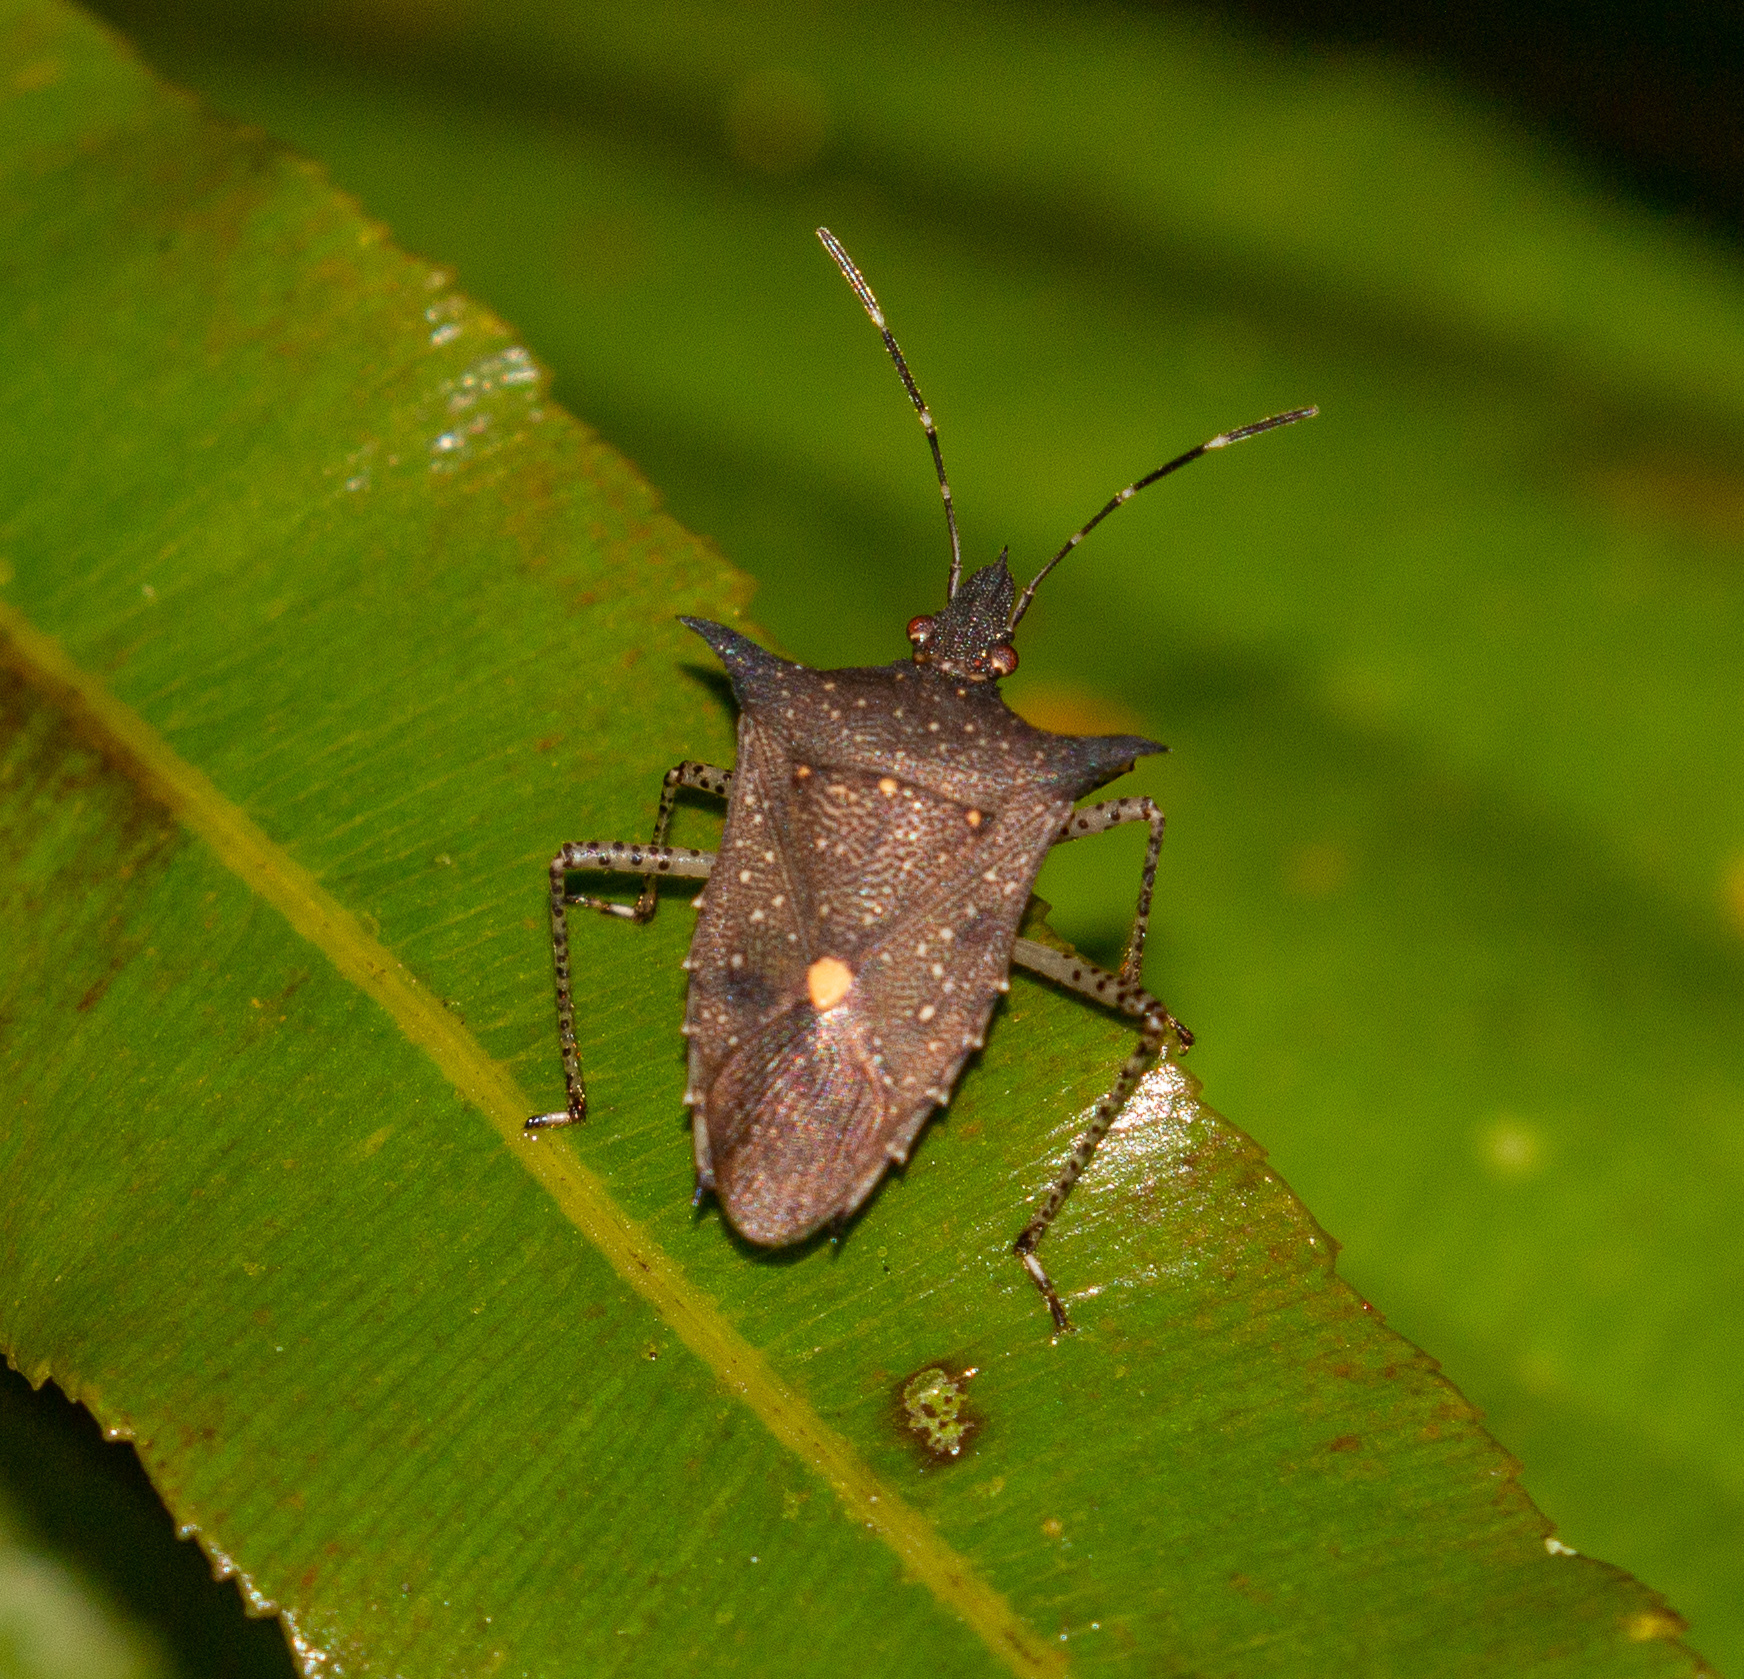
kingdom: Animalia
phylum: Arthropoda
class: Insecta
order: Hemiptera
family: Pentatomidae
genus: Proxys
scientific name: Proxys albopunctulatus
